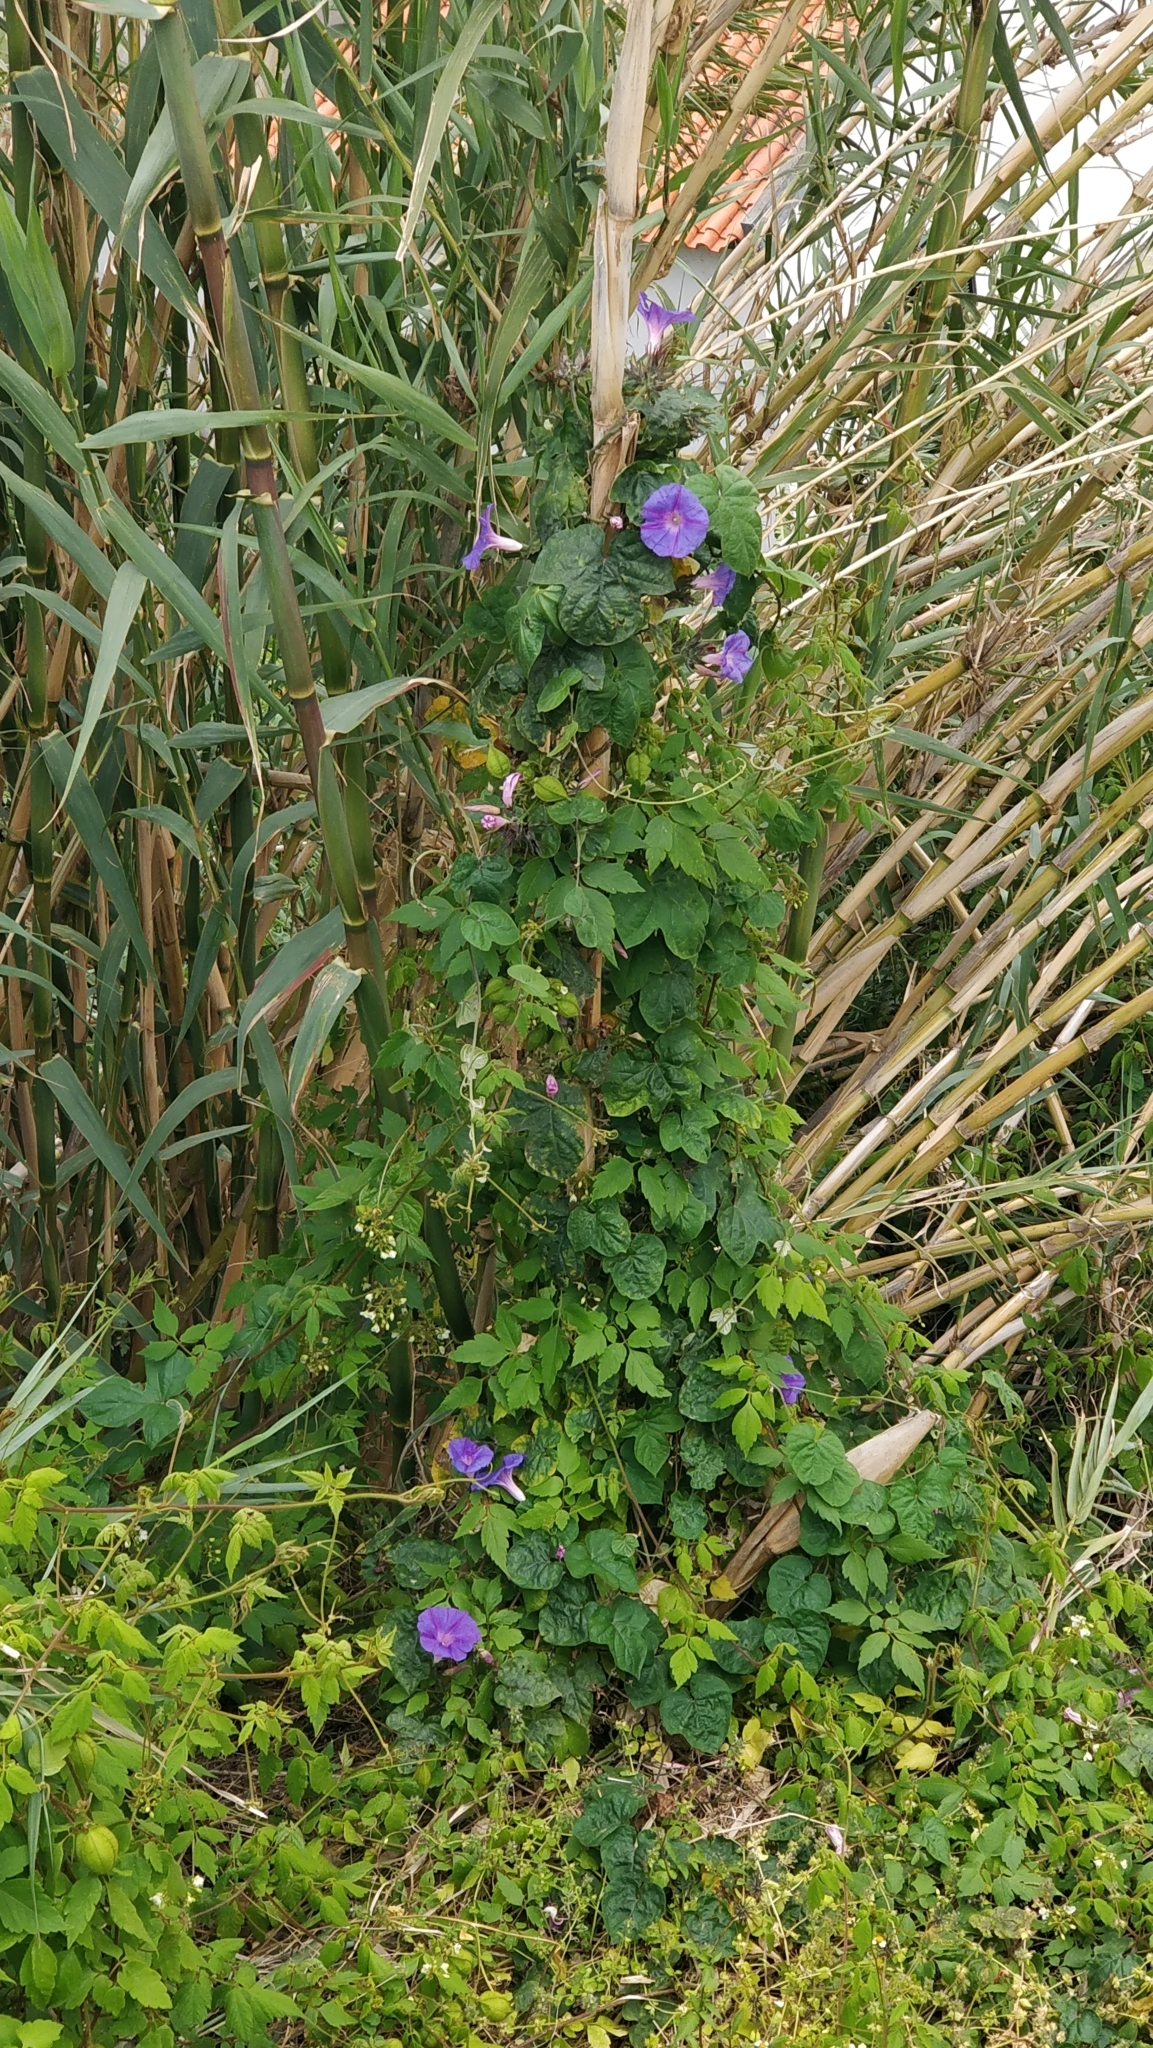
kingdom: Plantae
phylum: Tracheophyta
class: Magnoliopsida
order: Solanales
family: Convolvulaceae
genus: Ipomoea
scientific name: Ipomoea indica
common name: Blue dawnflower
